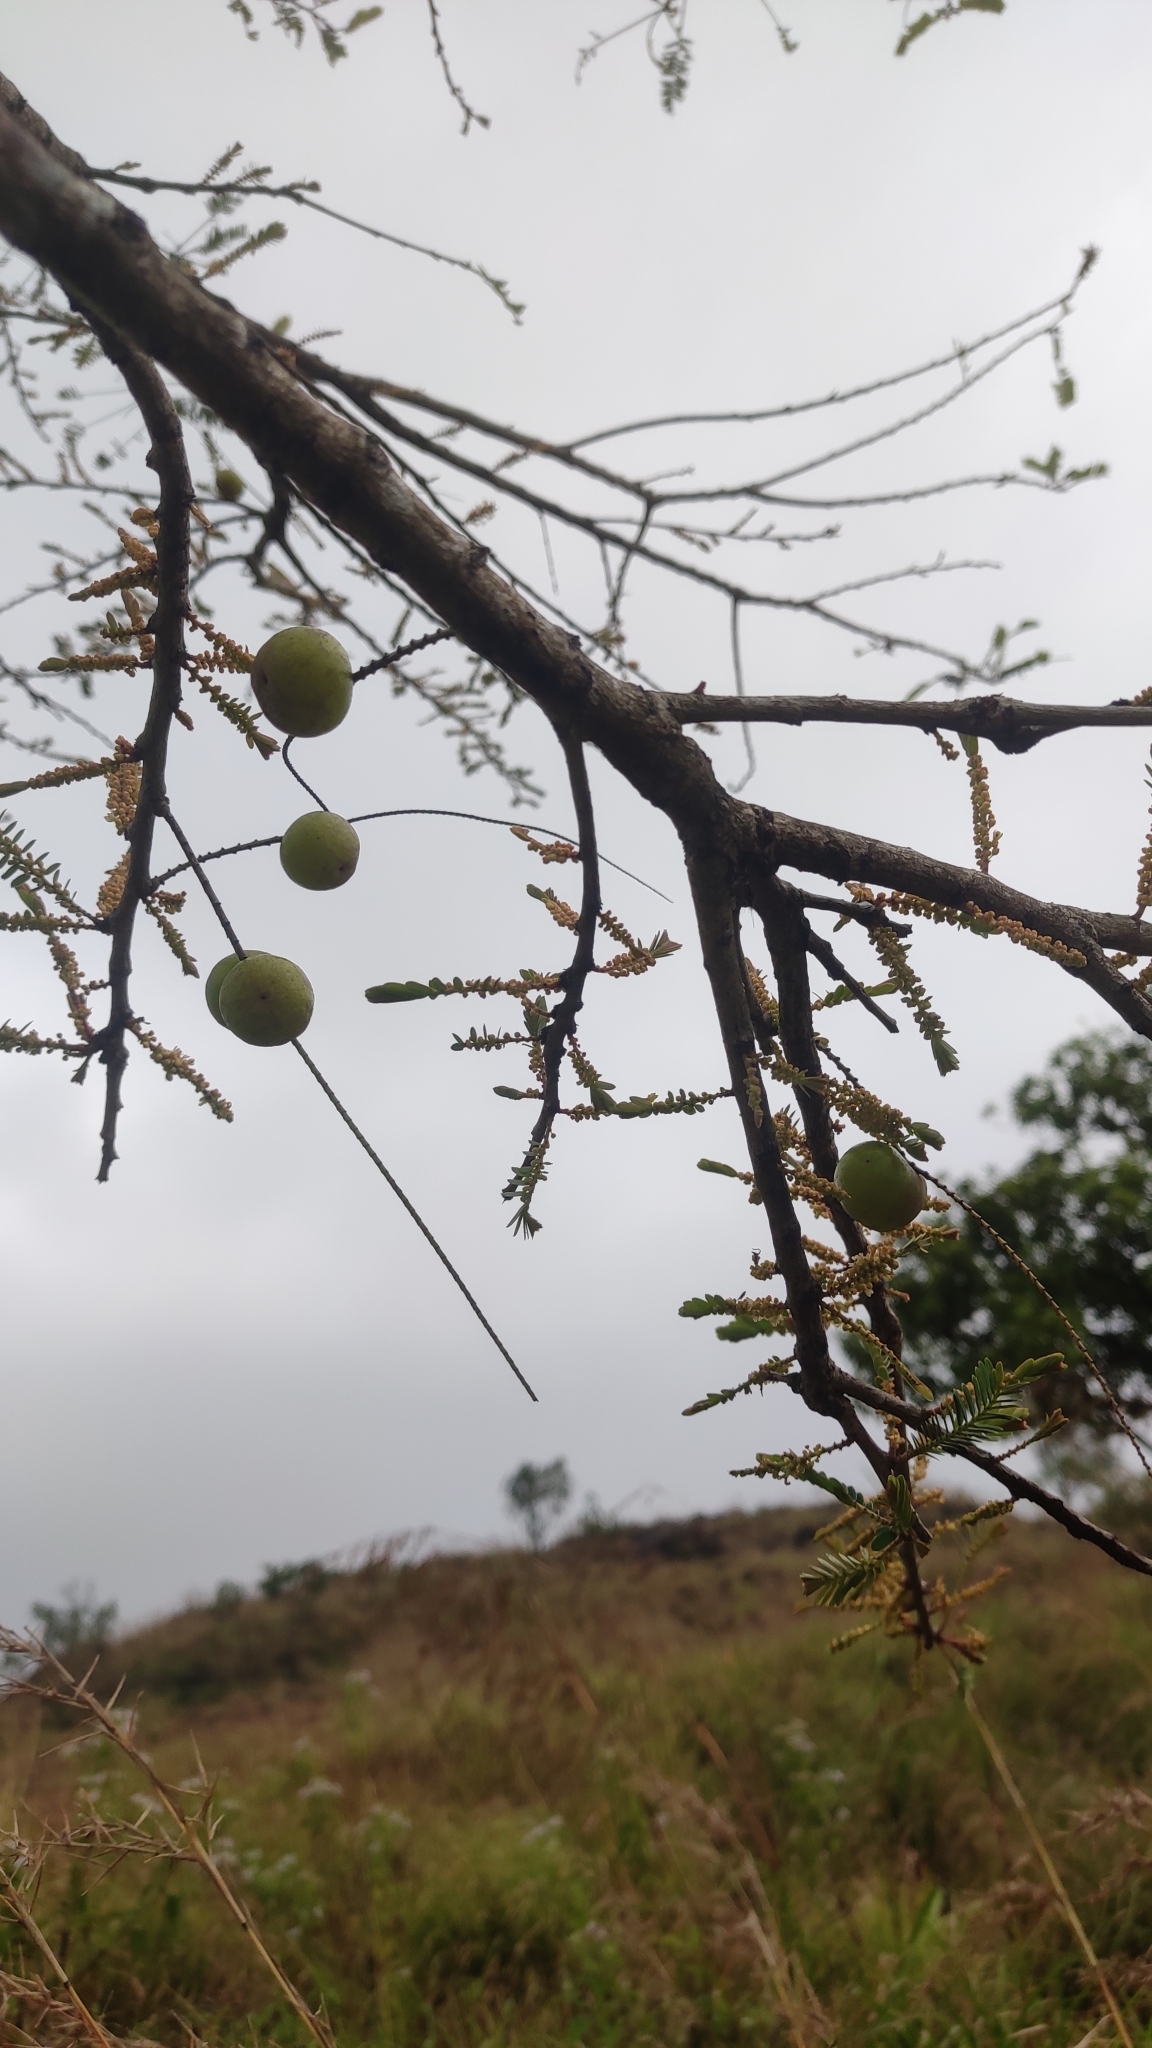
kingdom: Plantae
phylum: Tracheophyta
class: Magnoliopsida
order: Malpighiales
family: Phyllanthaceae
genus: Phyllanthus
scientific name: Phyllanthus emblica
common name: Indian gooseberry
